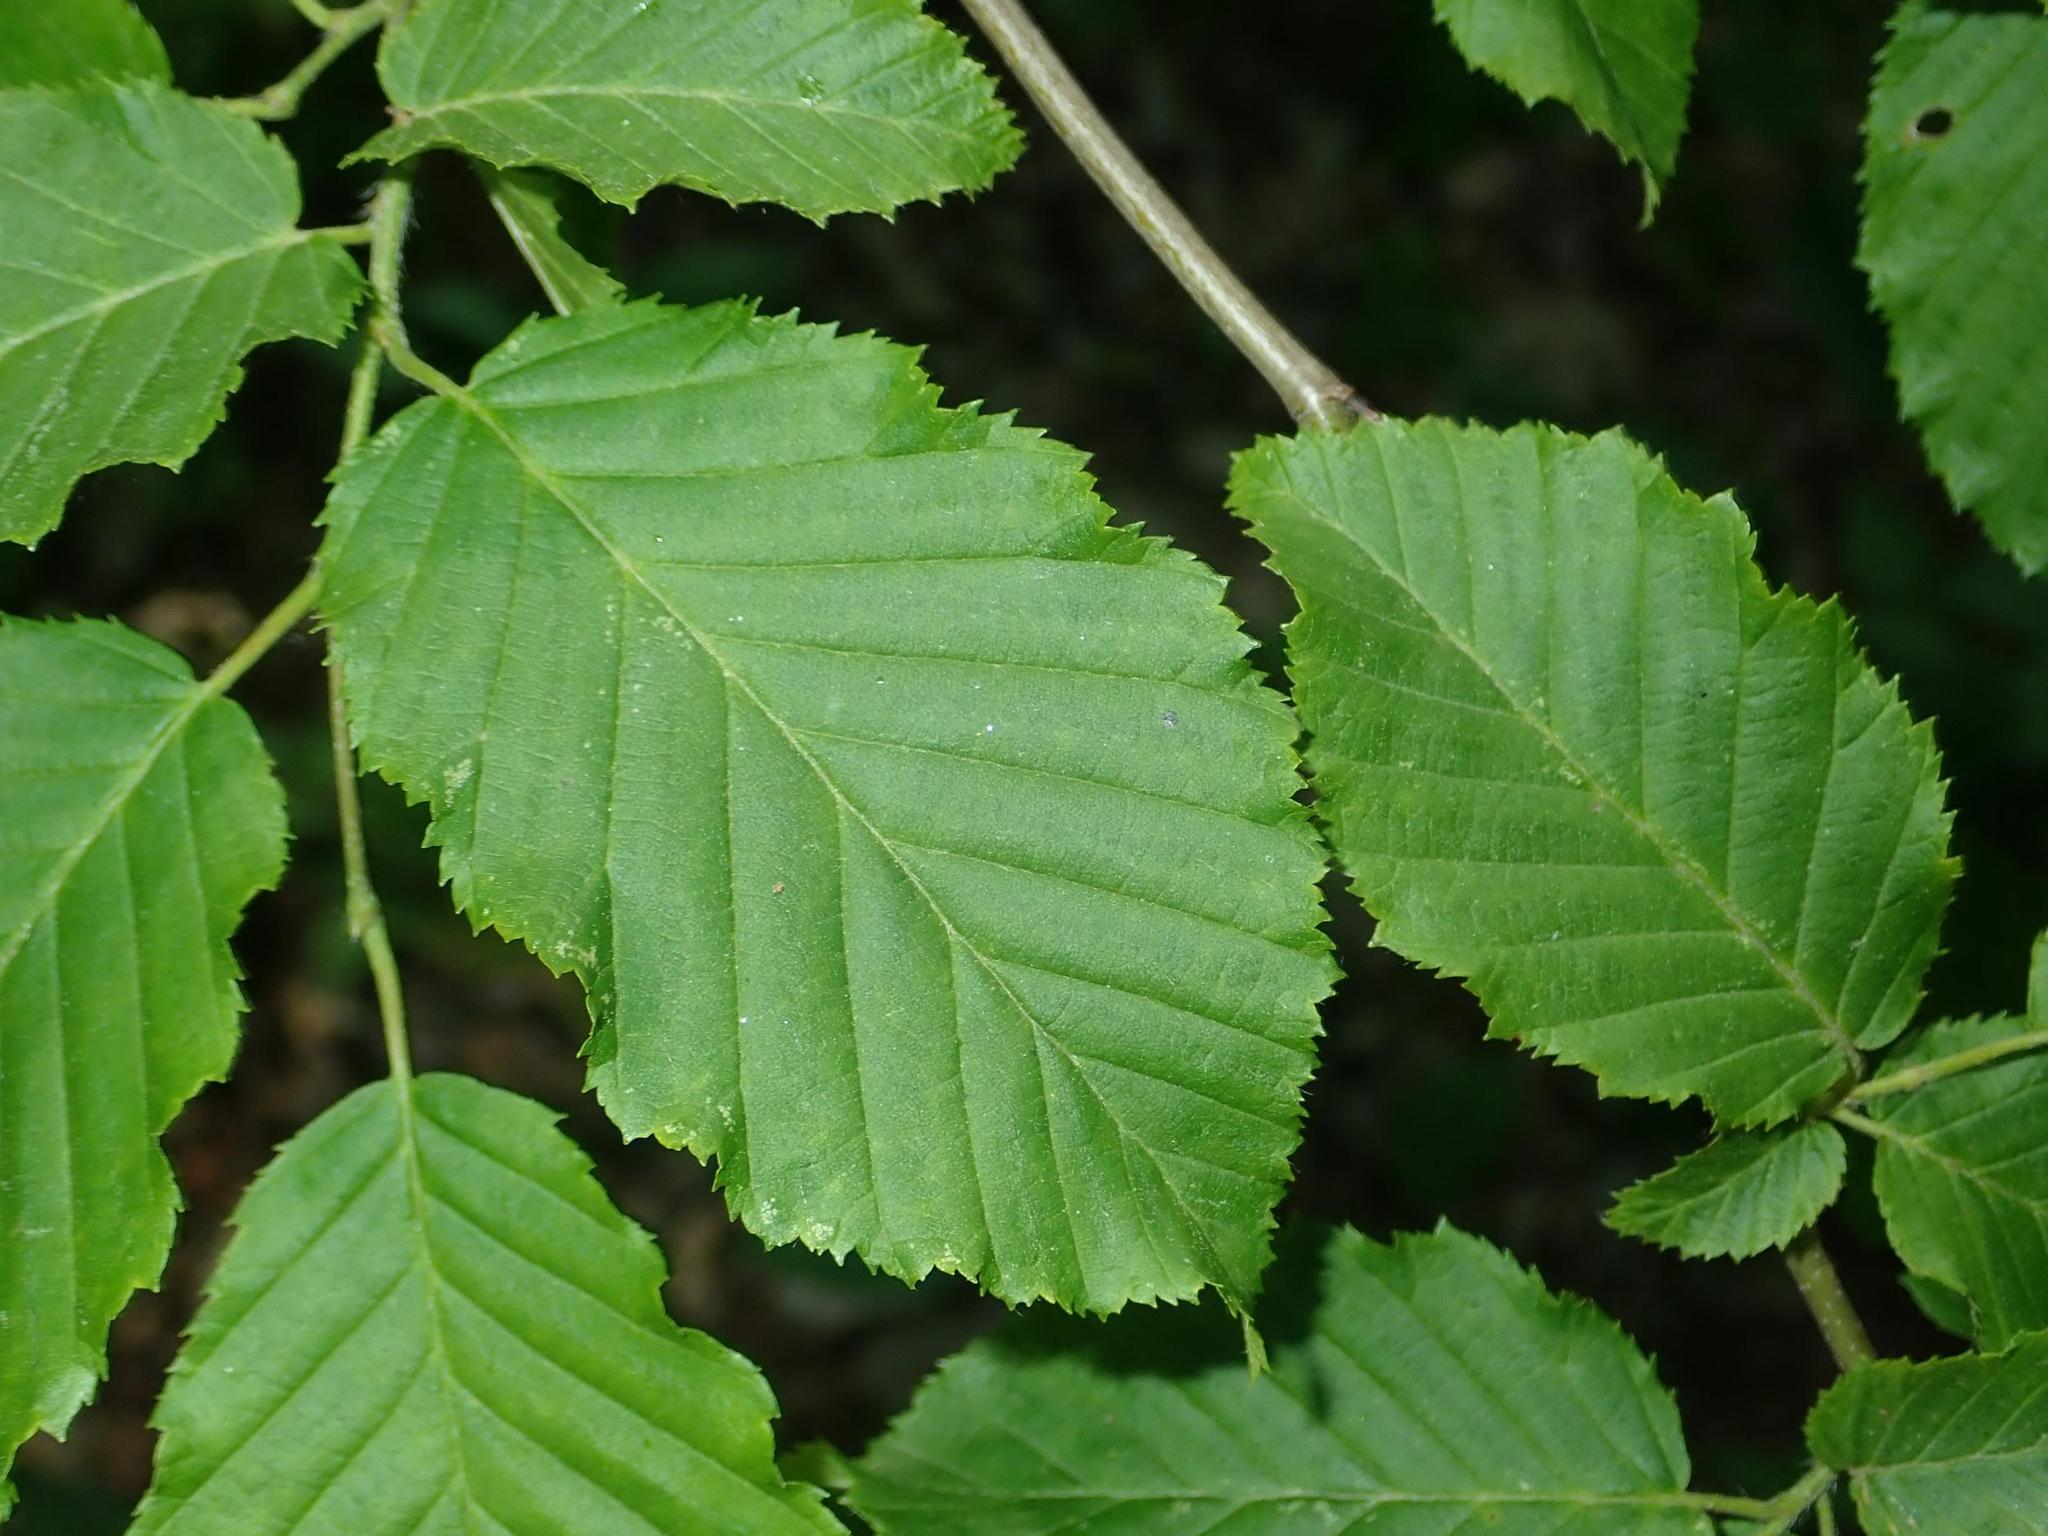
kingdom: Plantae
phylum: Tracheophyta
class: Magnoliopsida
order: Fagales
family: Betulaceae
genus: Carpinus
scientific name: Carpinus betulus
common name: Hornbeam
